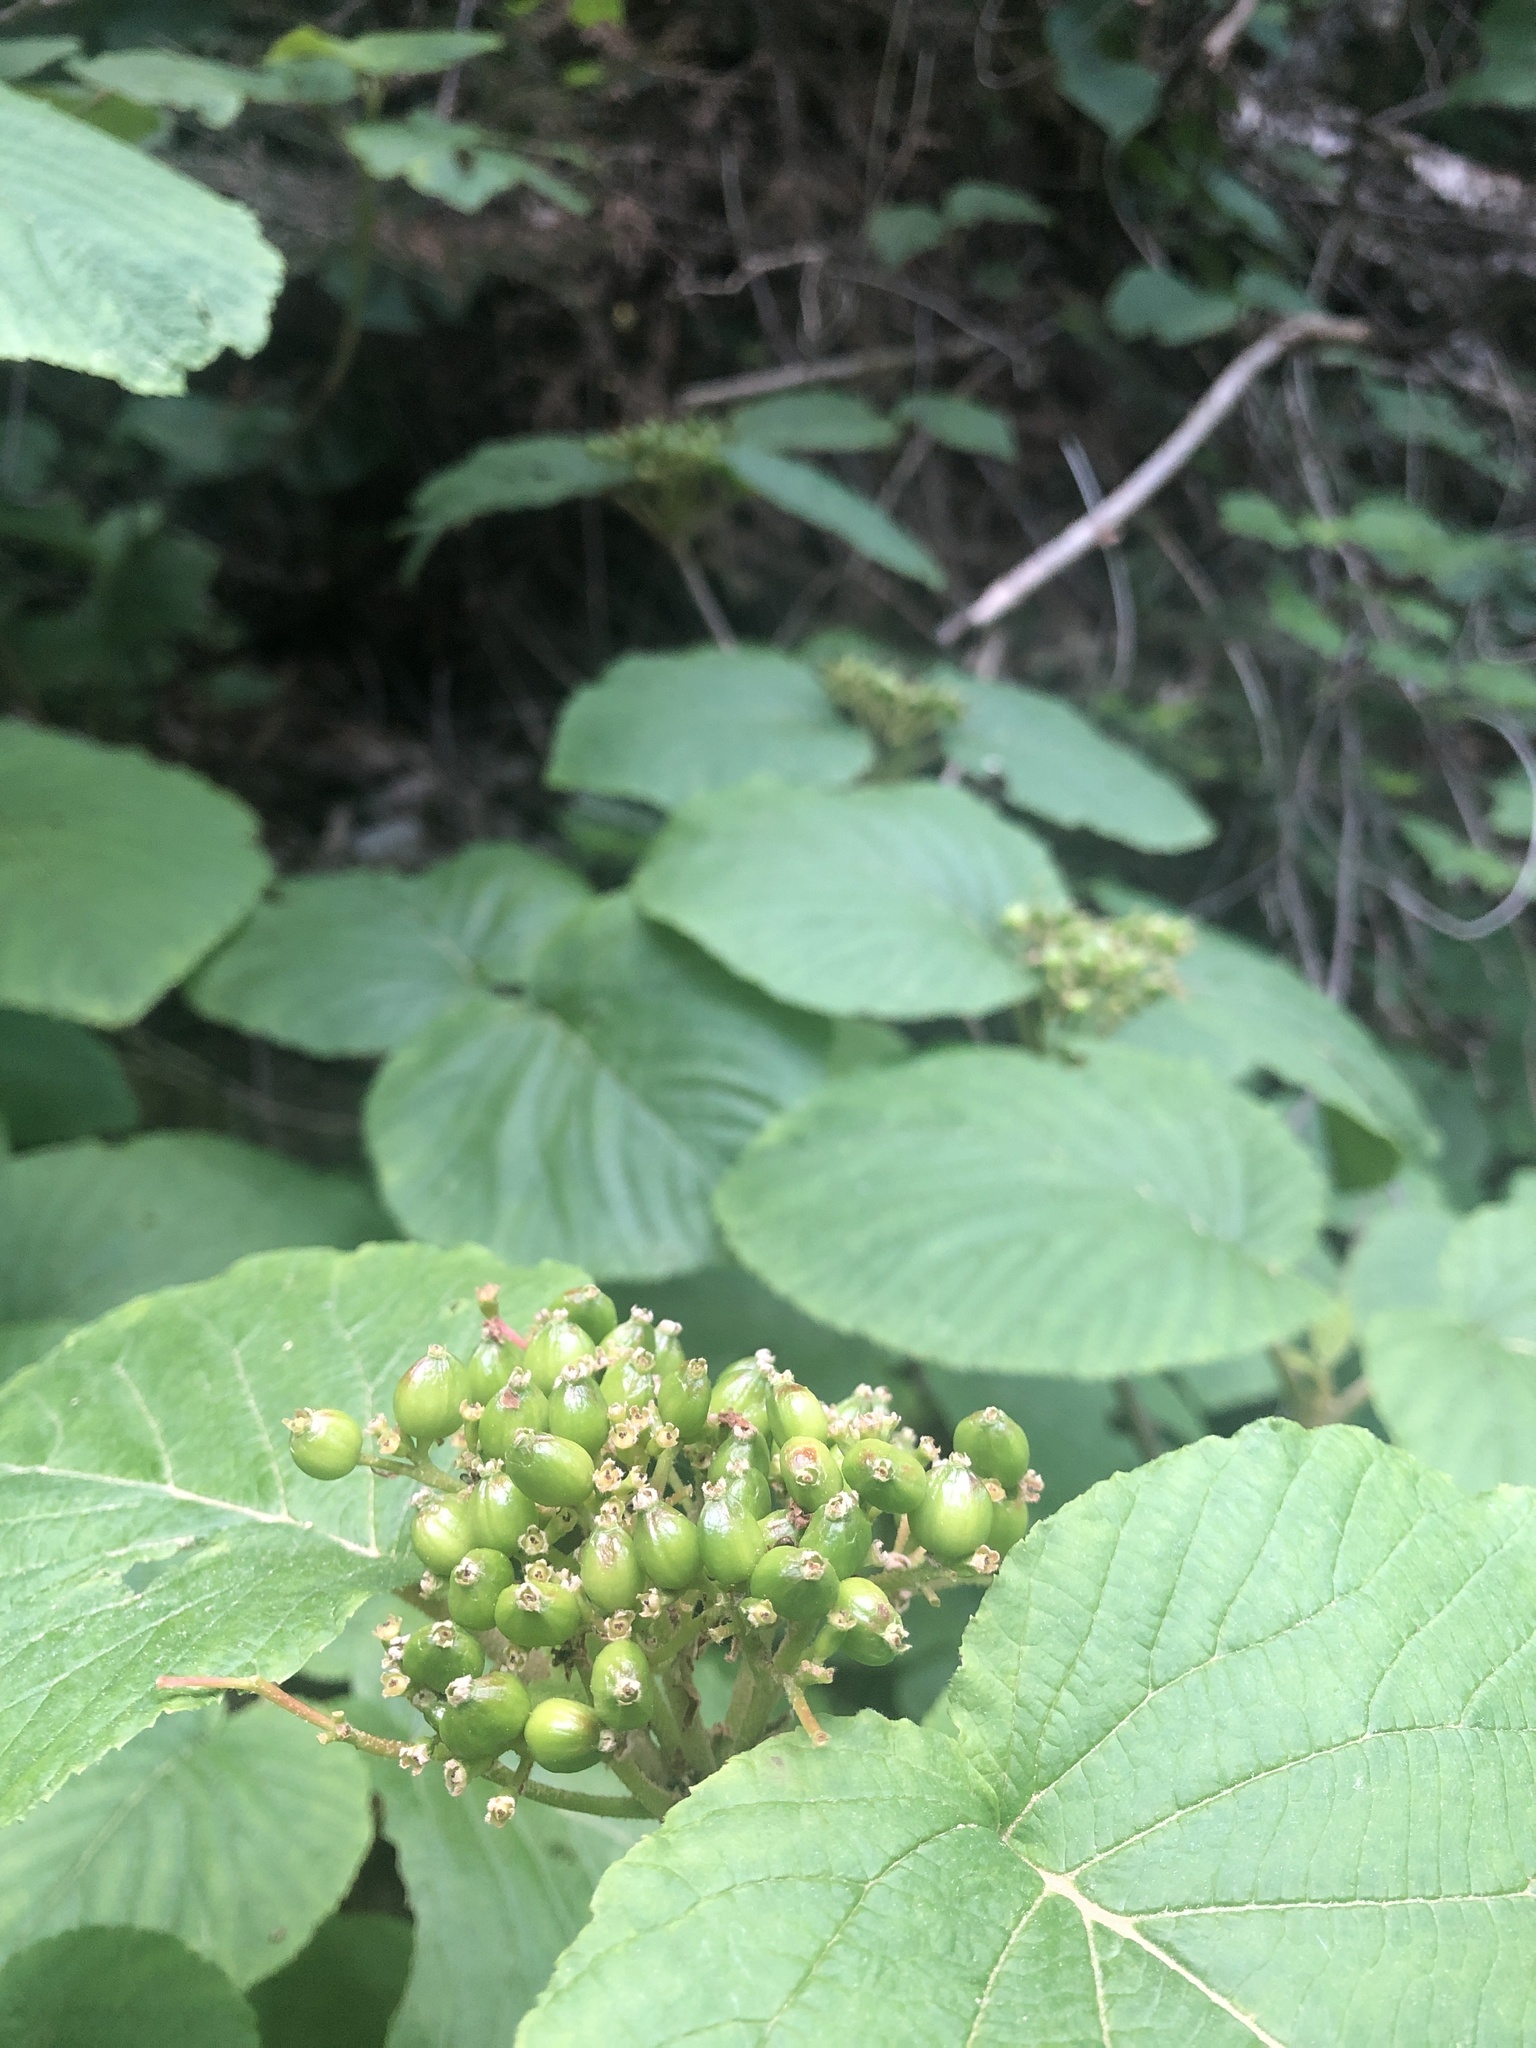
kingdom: Plantae
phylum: Tracheophyta
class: Magnoliopsida
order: Dipsacales
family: Viburnaceae
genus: Viburnum
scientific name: Viburnum lantanoides
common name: Hobblebush
